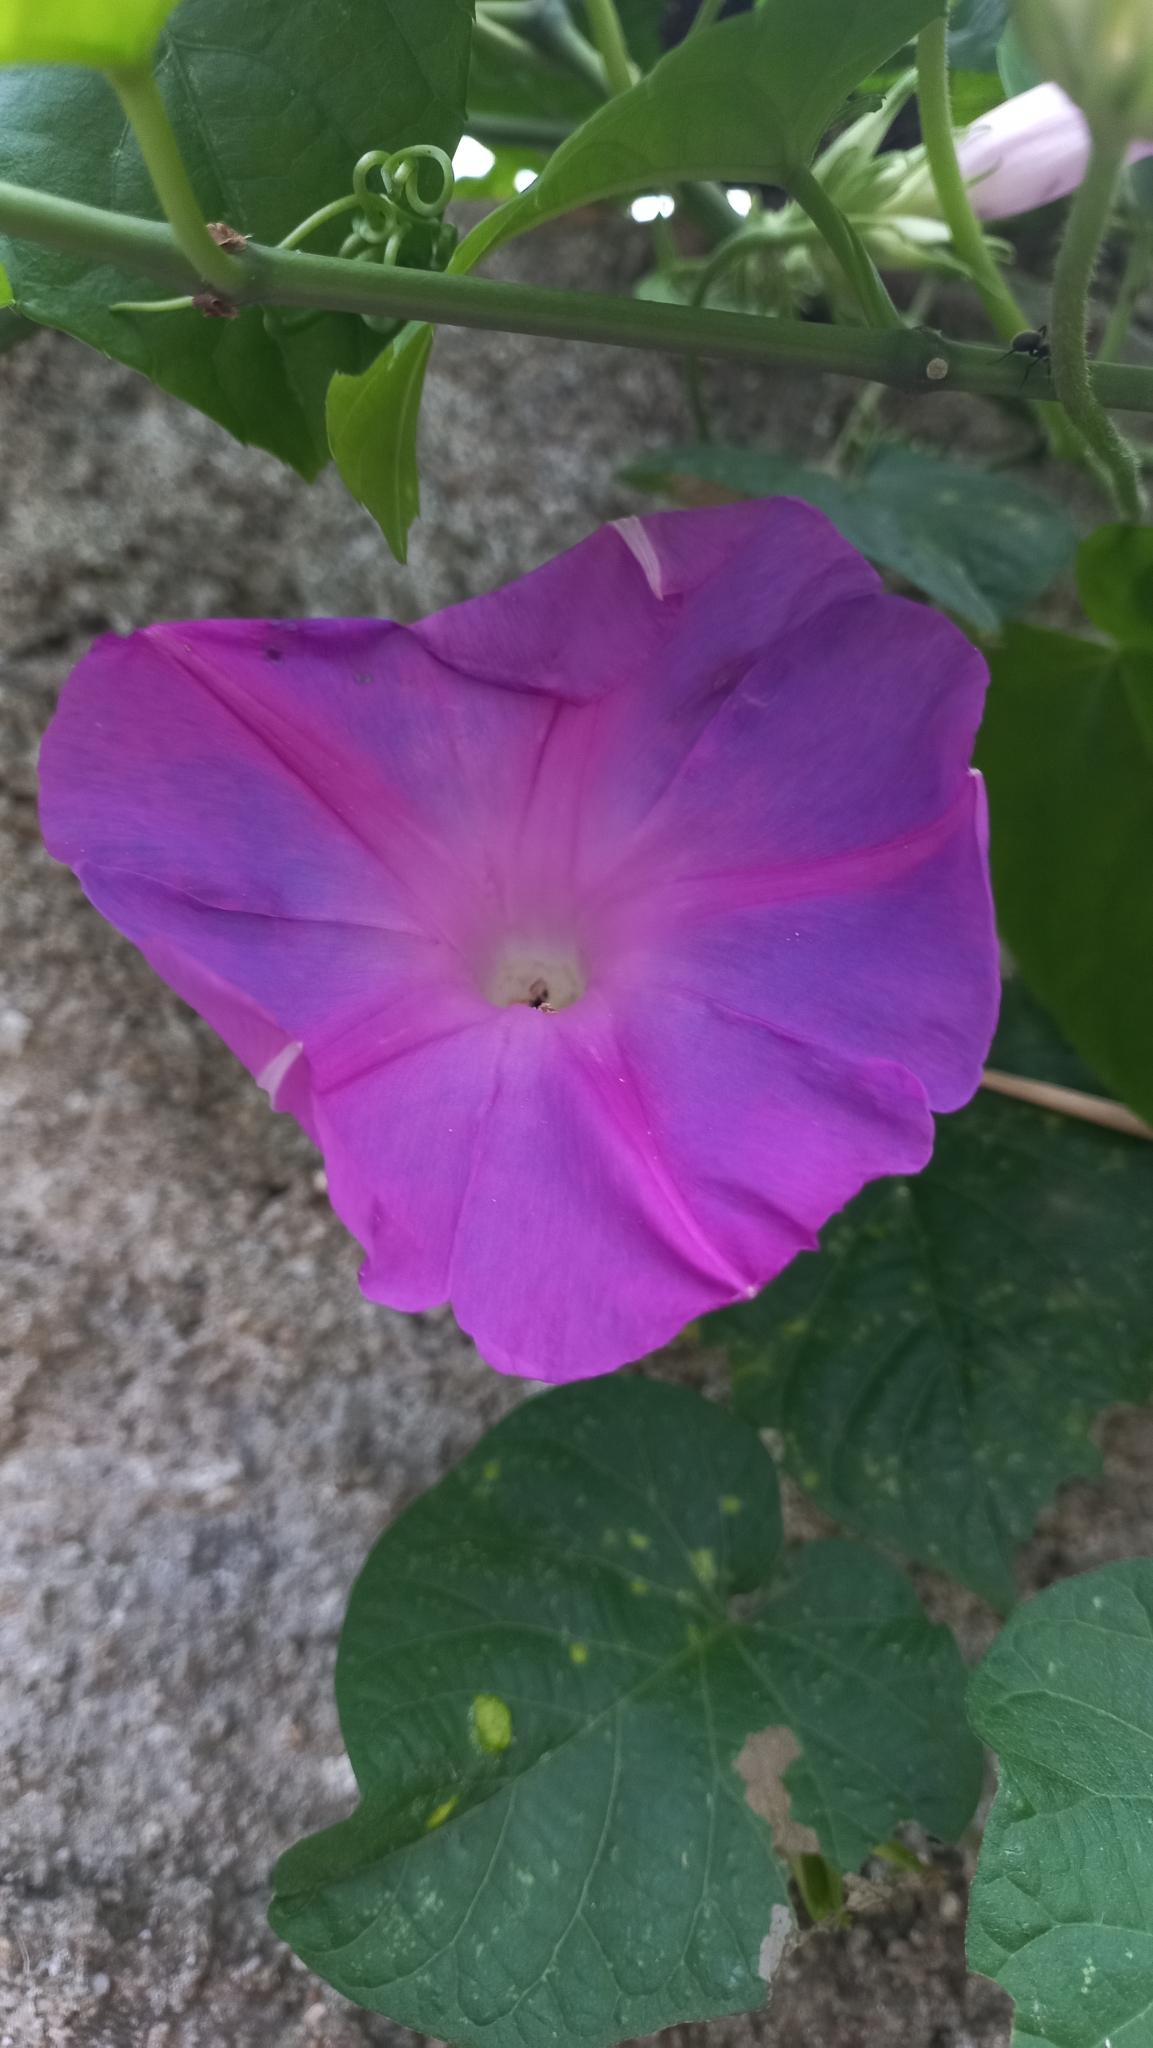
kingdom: Plantae
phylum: Tracheophyta
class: Magnoliopsida
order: Solanales
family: Convolvulaceae
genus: Ipomoea
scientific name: Ipomoea indica
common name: Blue dawnflower
